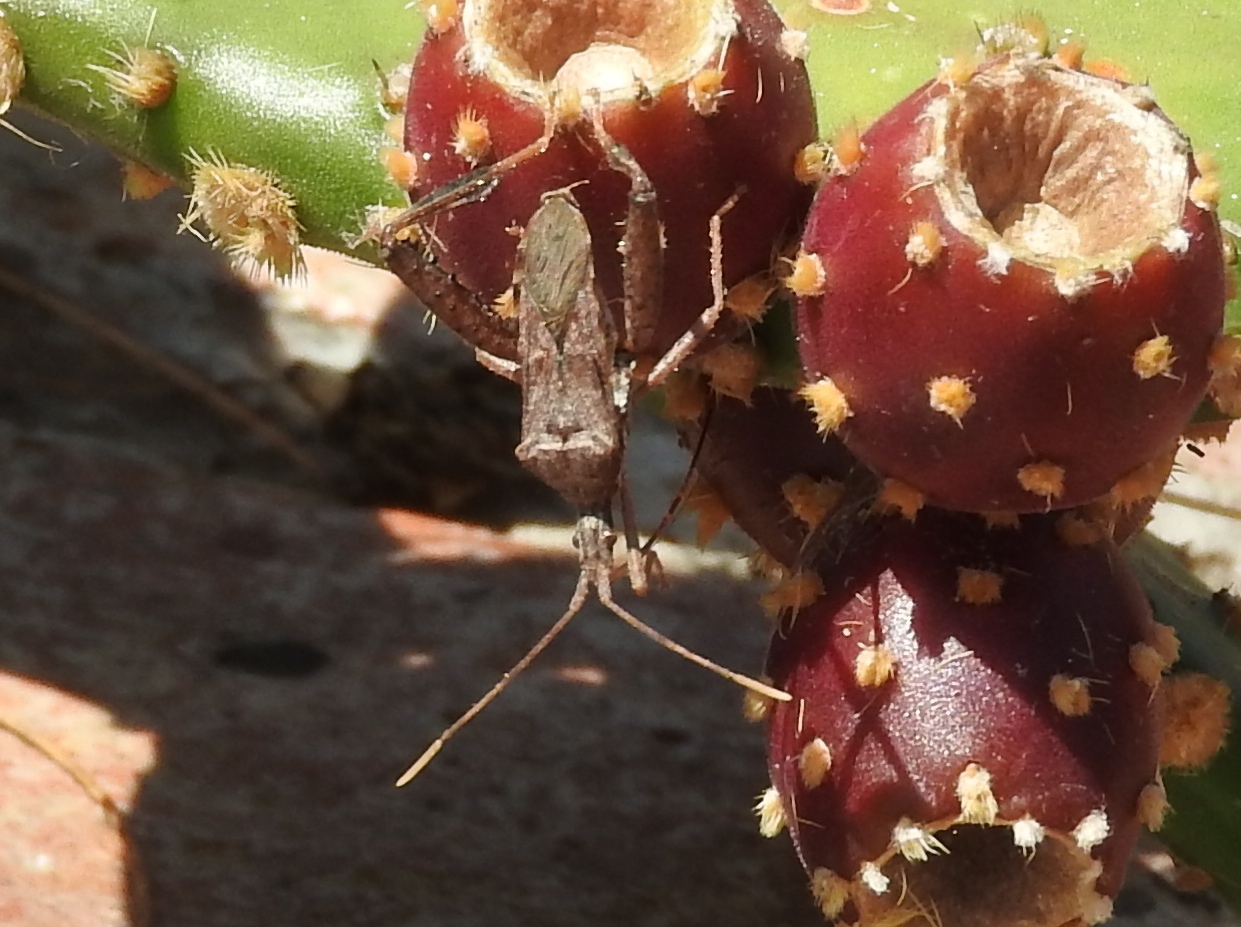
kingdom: Animalia
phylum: Arthropoda
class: Insecta
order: Hemiptera
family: Coreidae
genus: Narnia
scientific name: Narnia inornata
